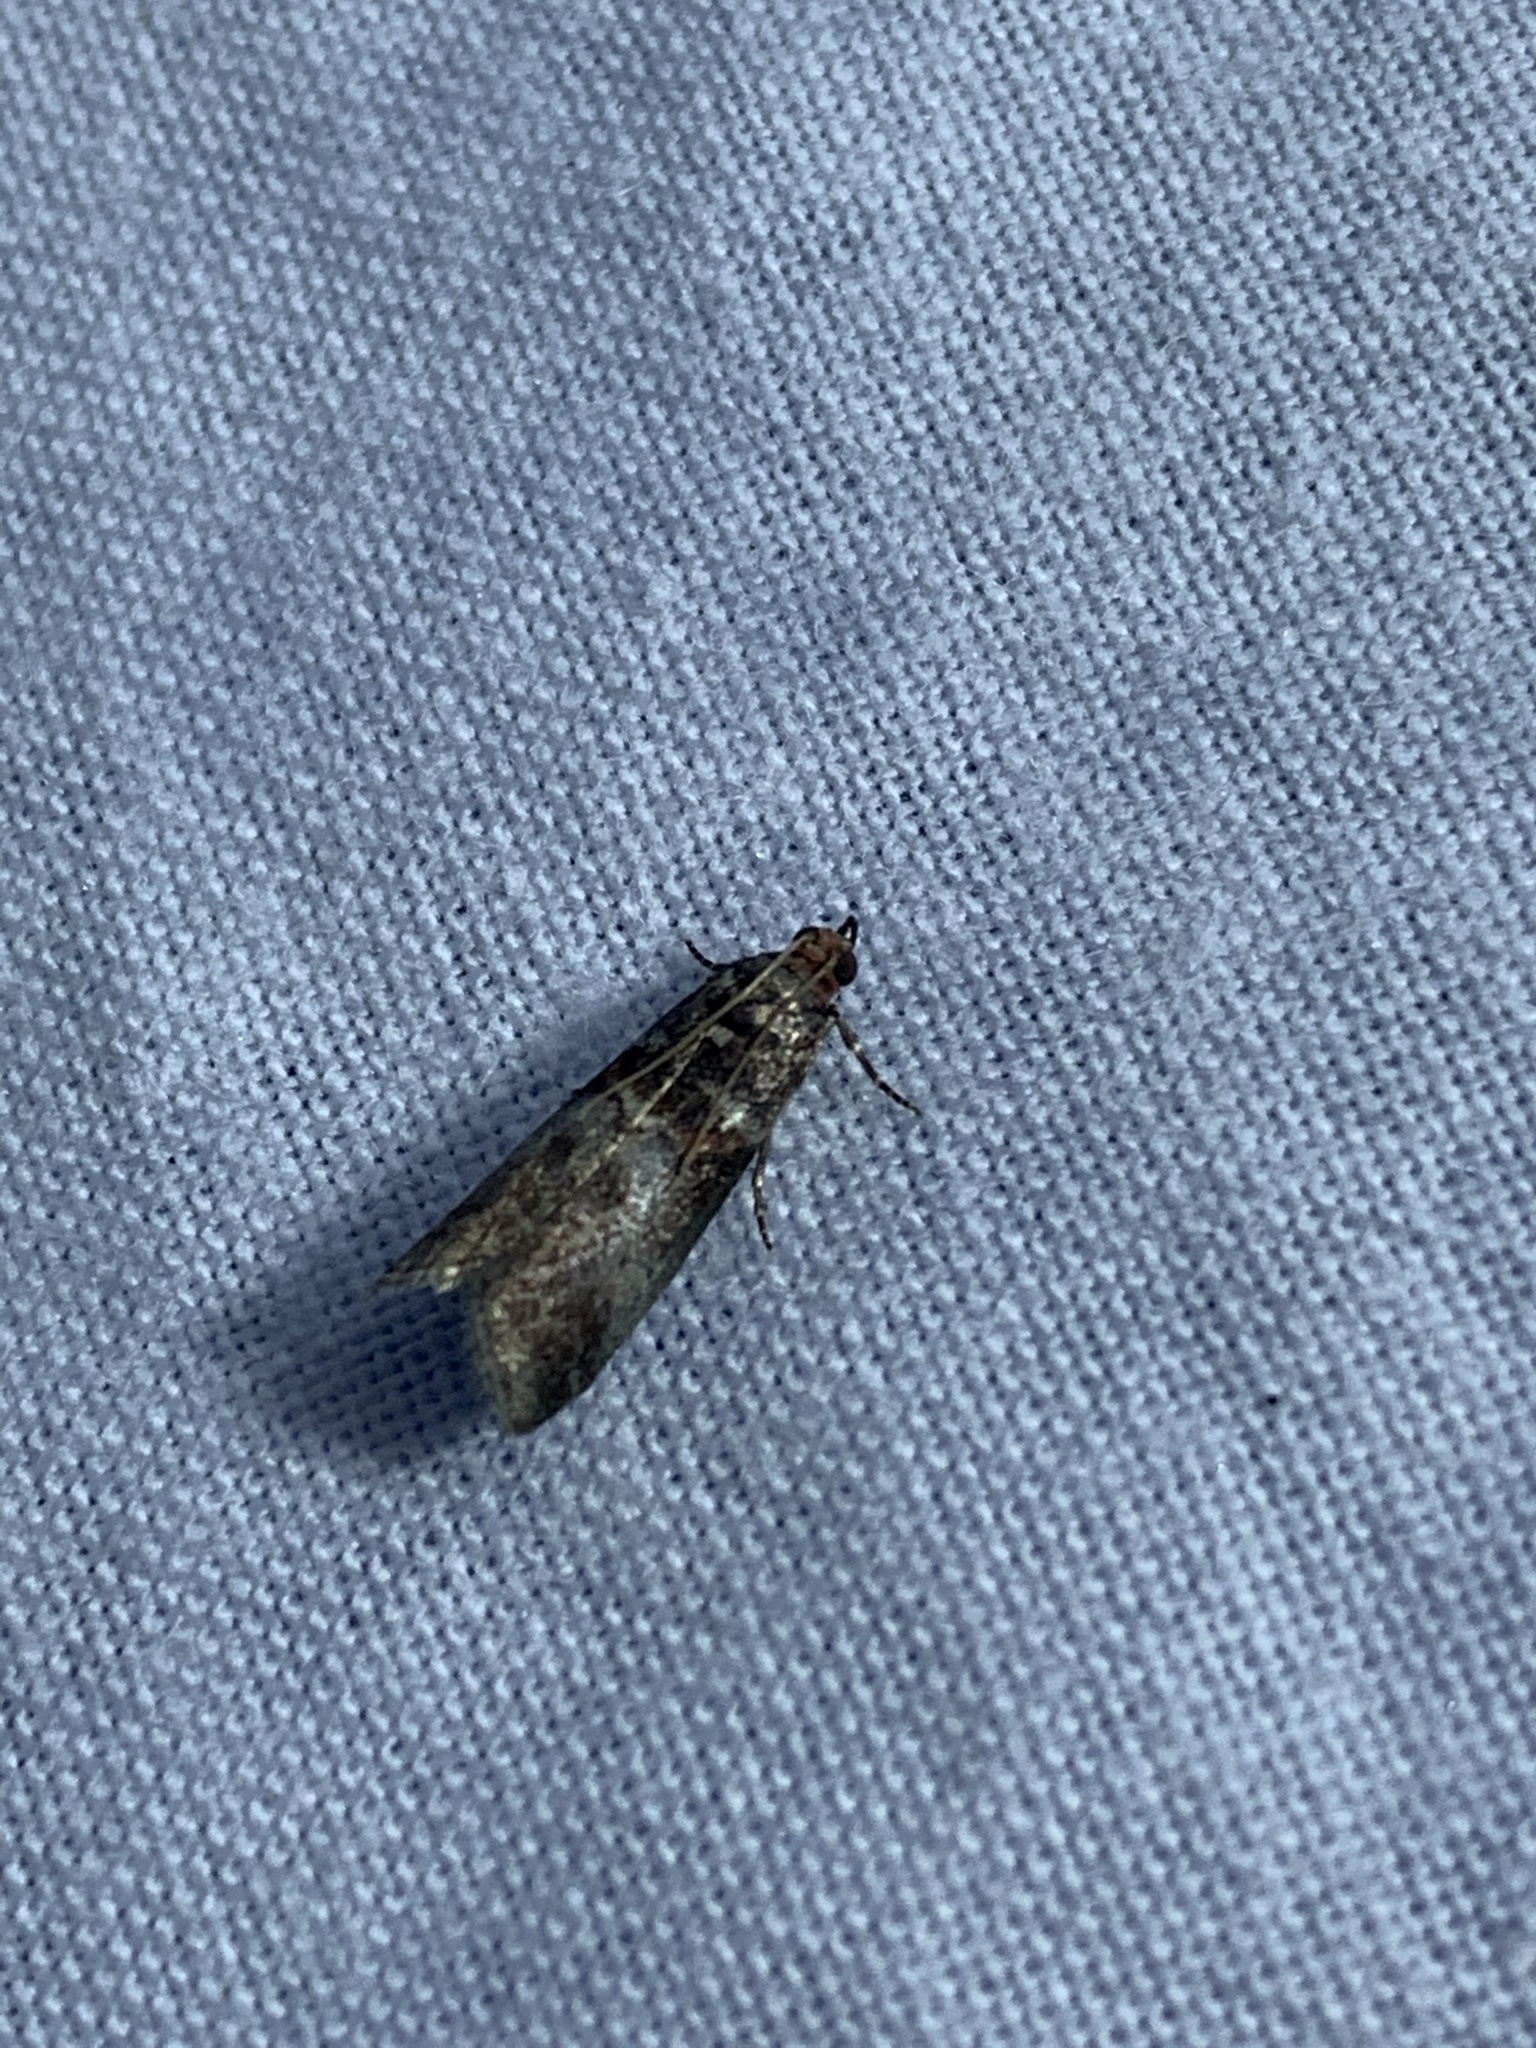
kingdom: Animalia
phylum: Arthropoda
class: Insecta
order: Lepidoptera
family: Pyralidae
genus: Acrobasis
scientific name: Acrobasis advenella
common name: Grey knot-horn
